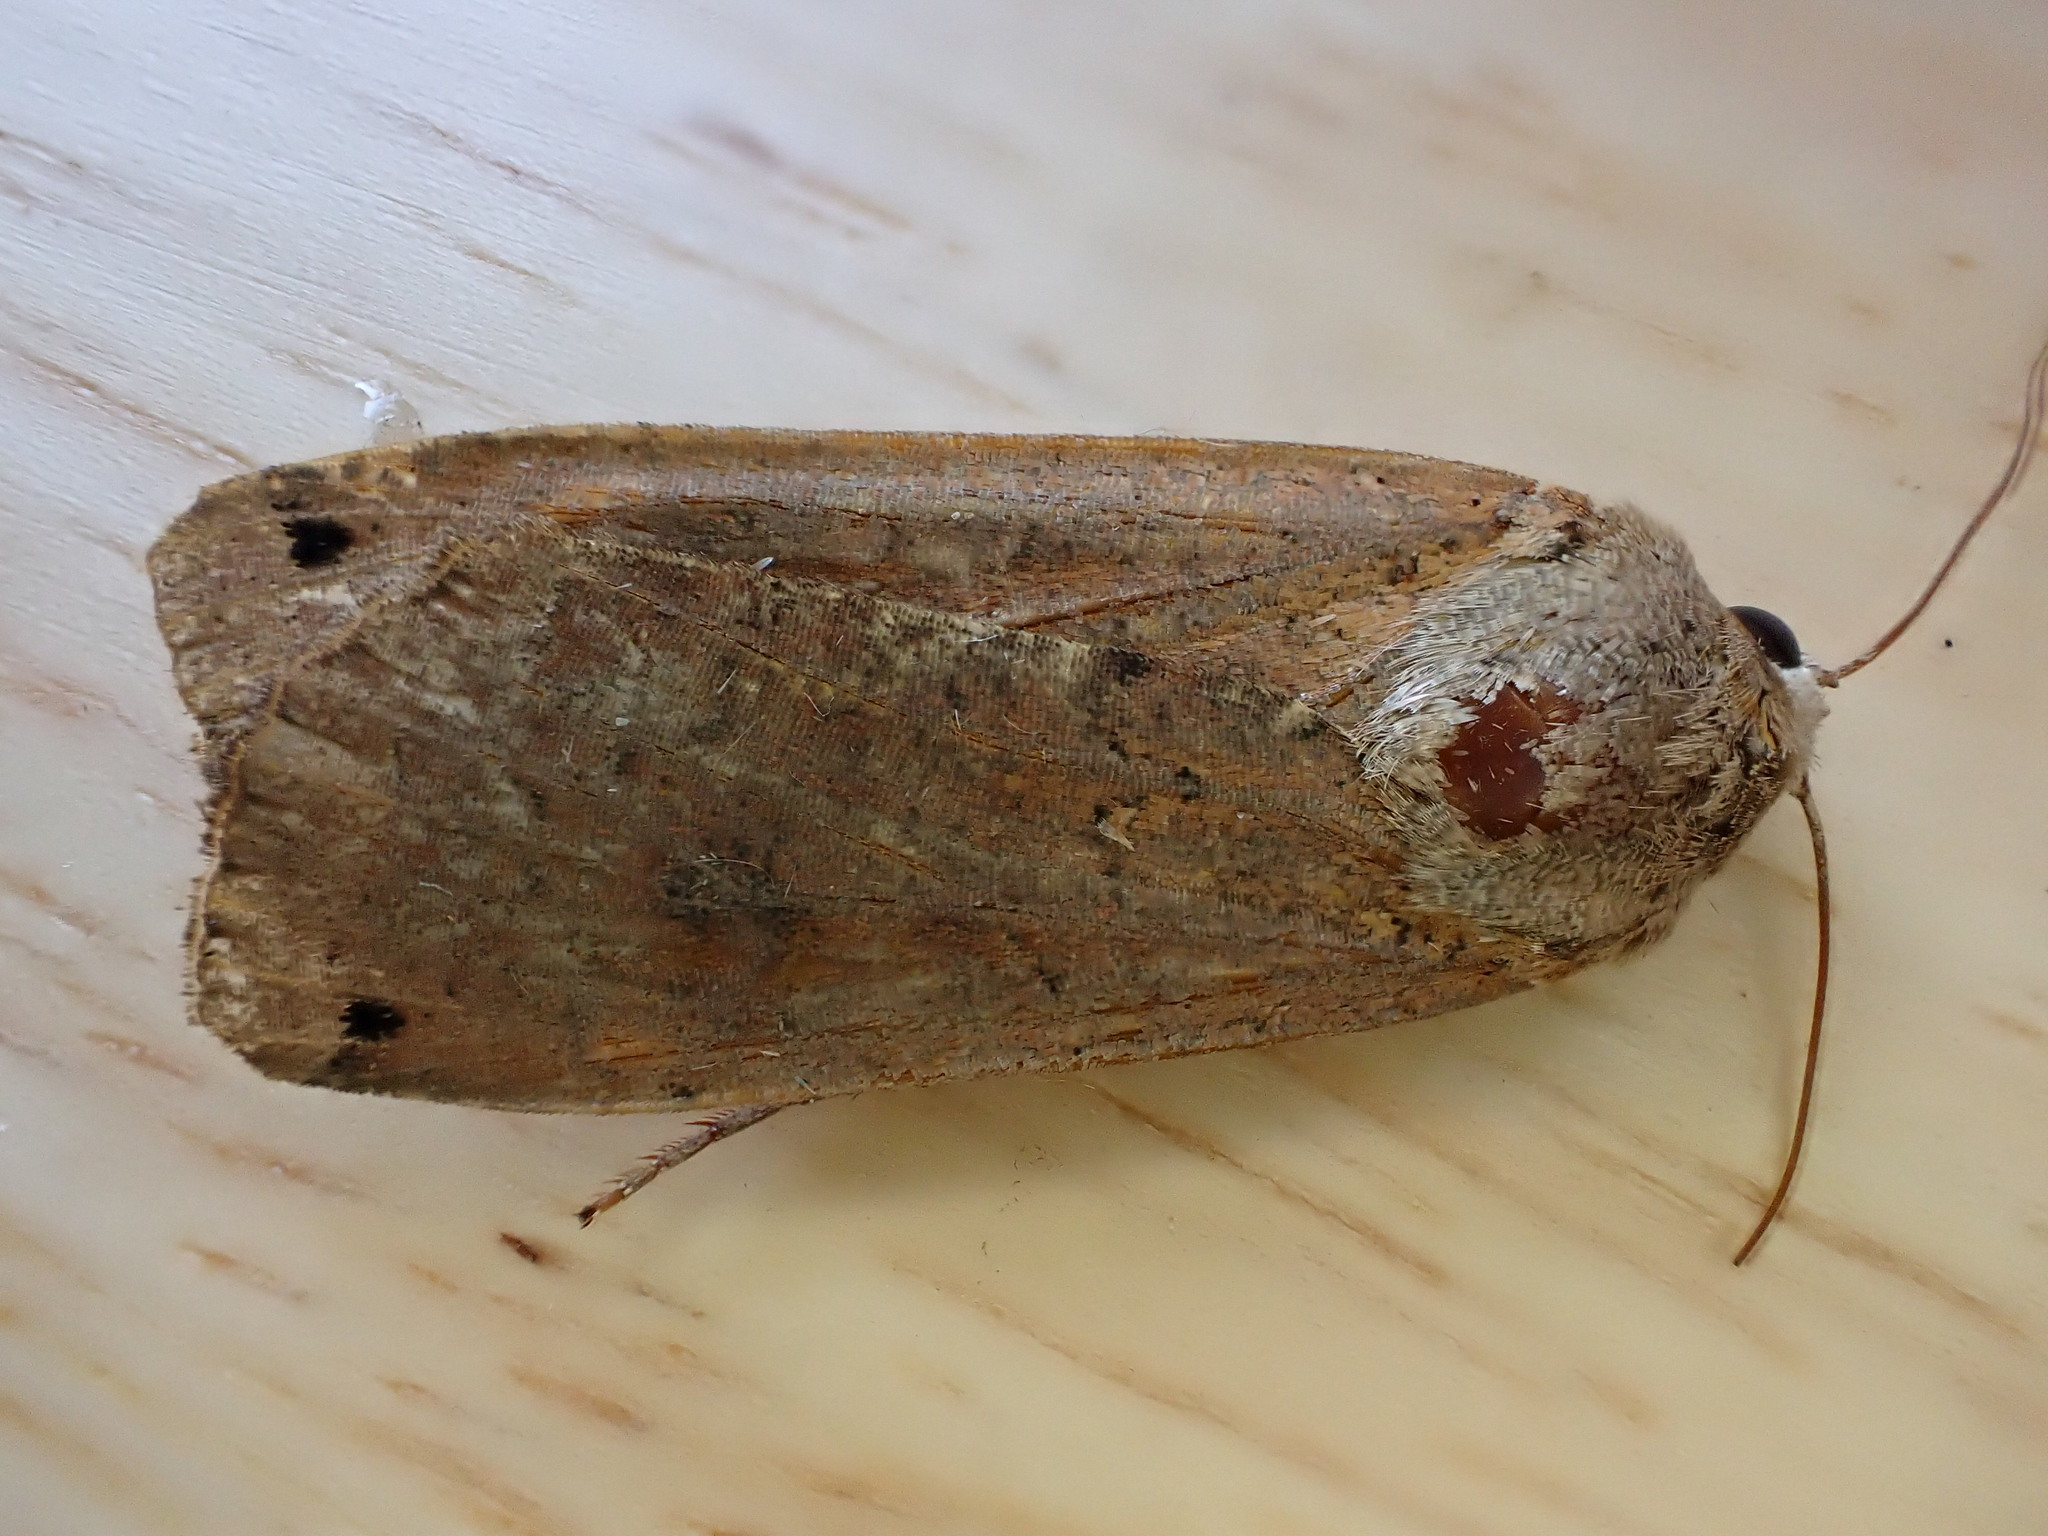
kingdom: Animalia
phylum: Arthropoda
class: Insecta
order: Lepidoptera
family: Noctuidae
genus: Noctua
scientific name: Noctua pronuba
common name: Large yellow underwing
